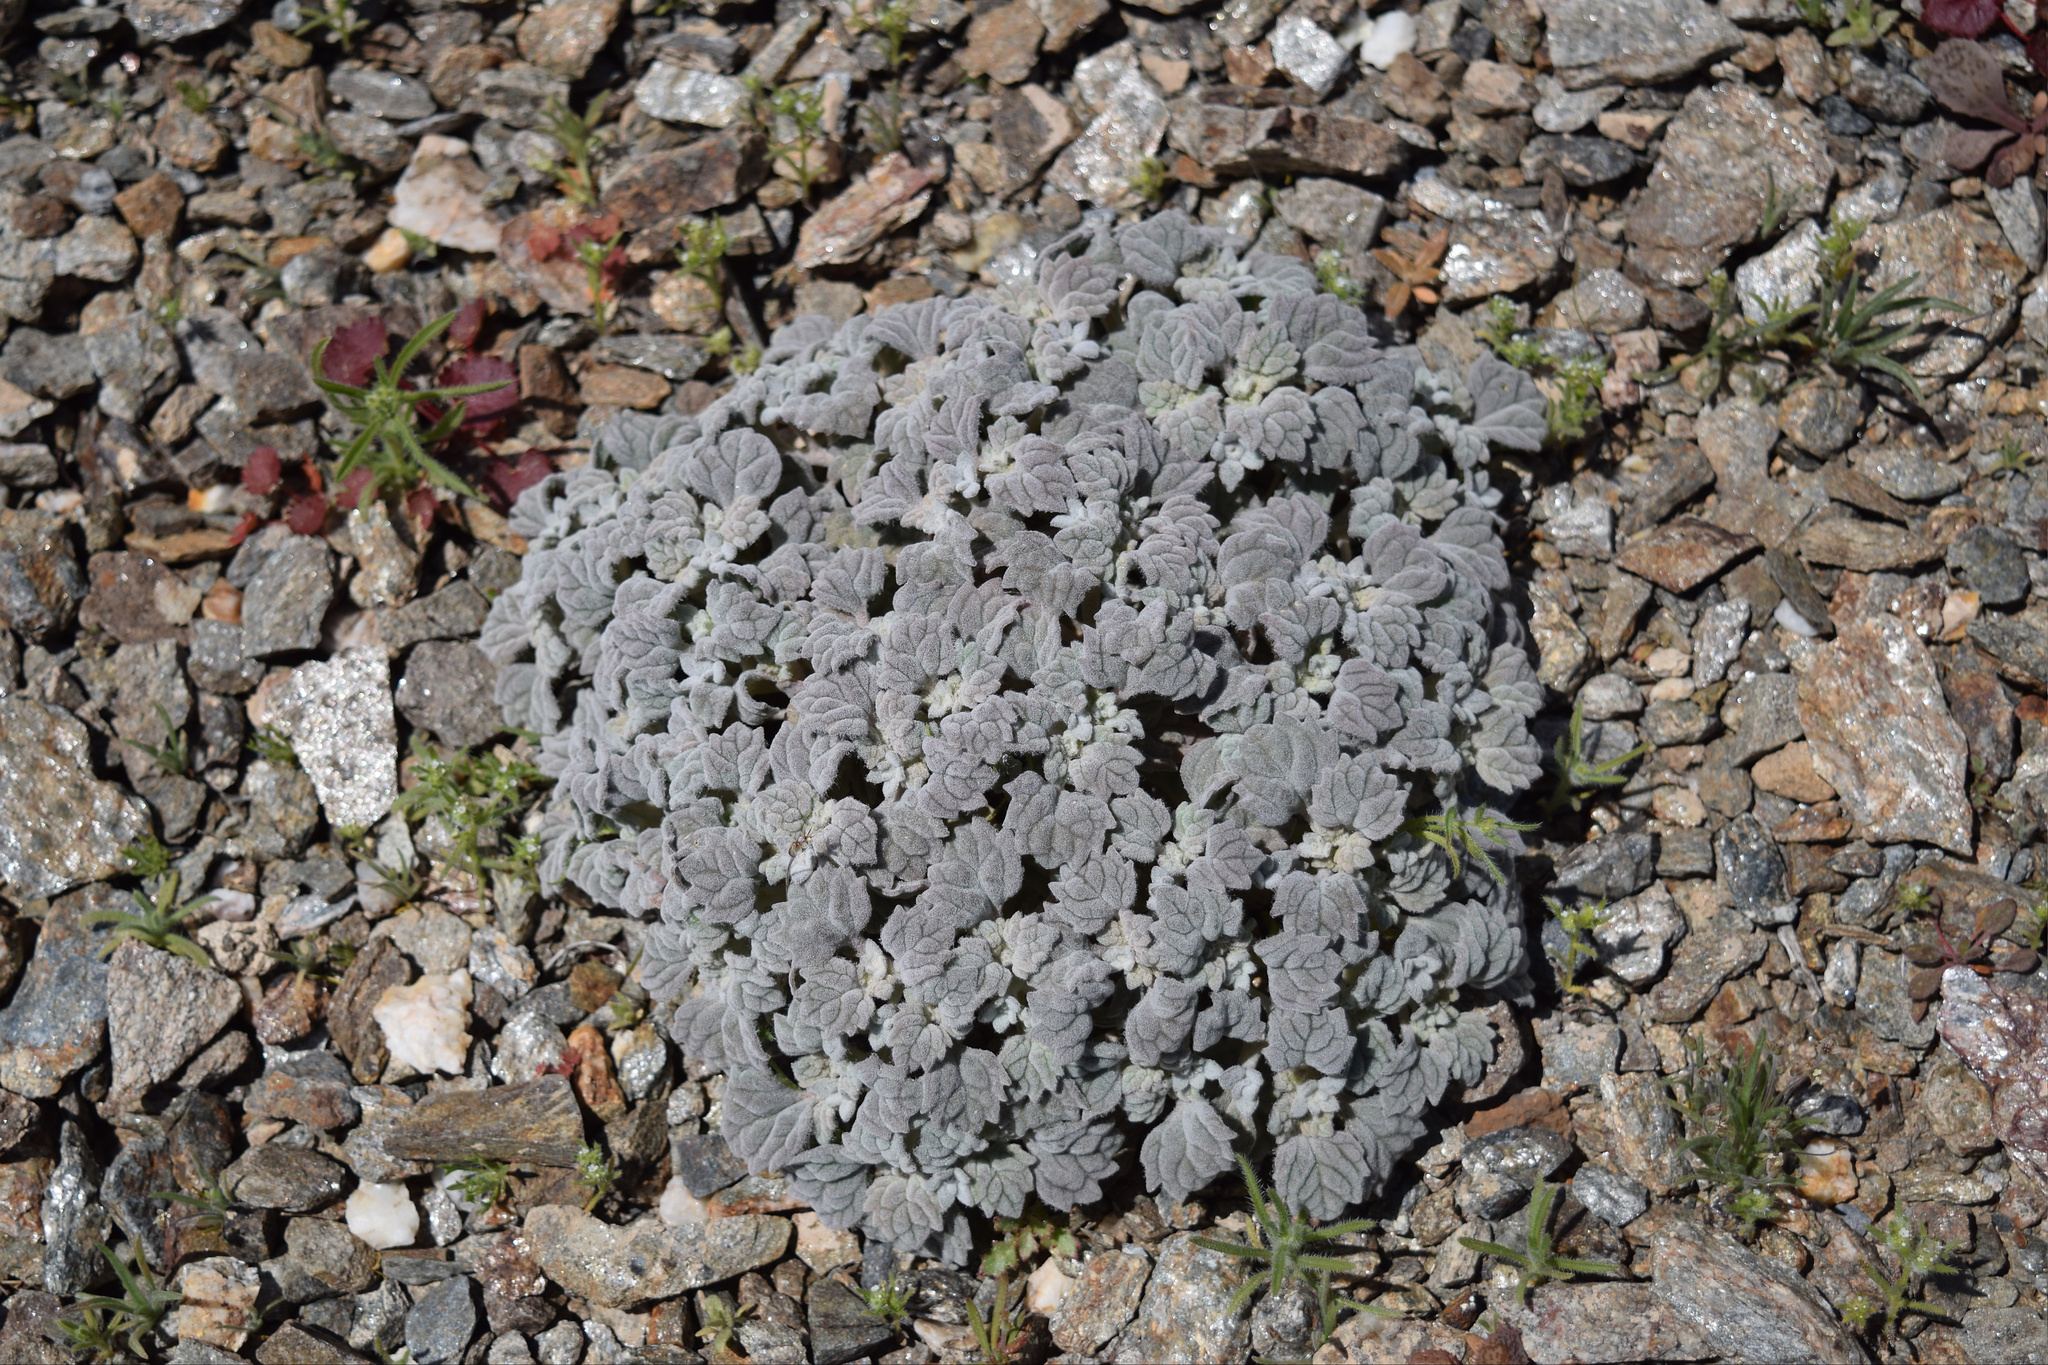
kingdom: Plantae
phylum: Tracheophyta
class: Magnoliopsida
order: Asterales
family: Asteraceae
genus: Psathyrotes
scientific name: Psathyrotes ramosissima
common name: Turtleback
